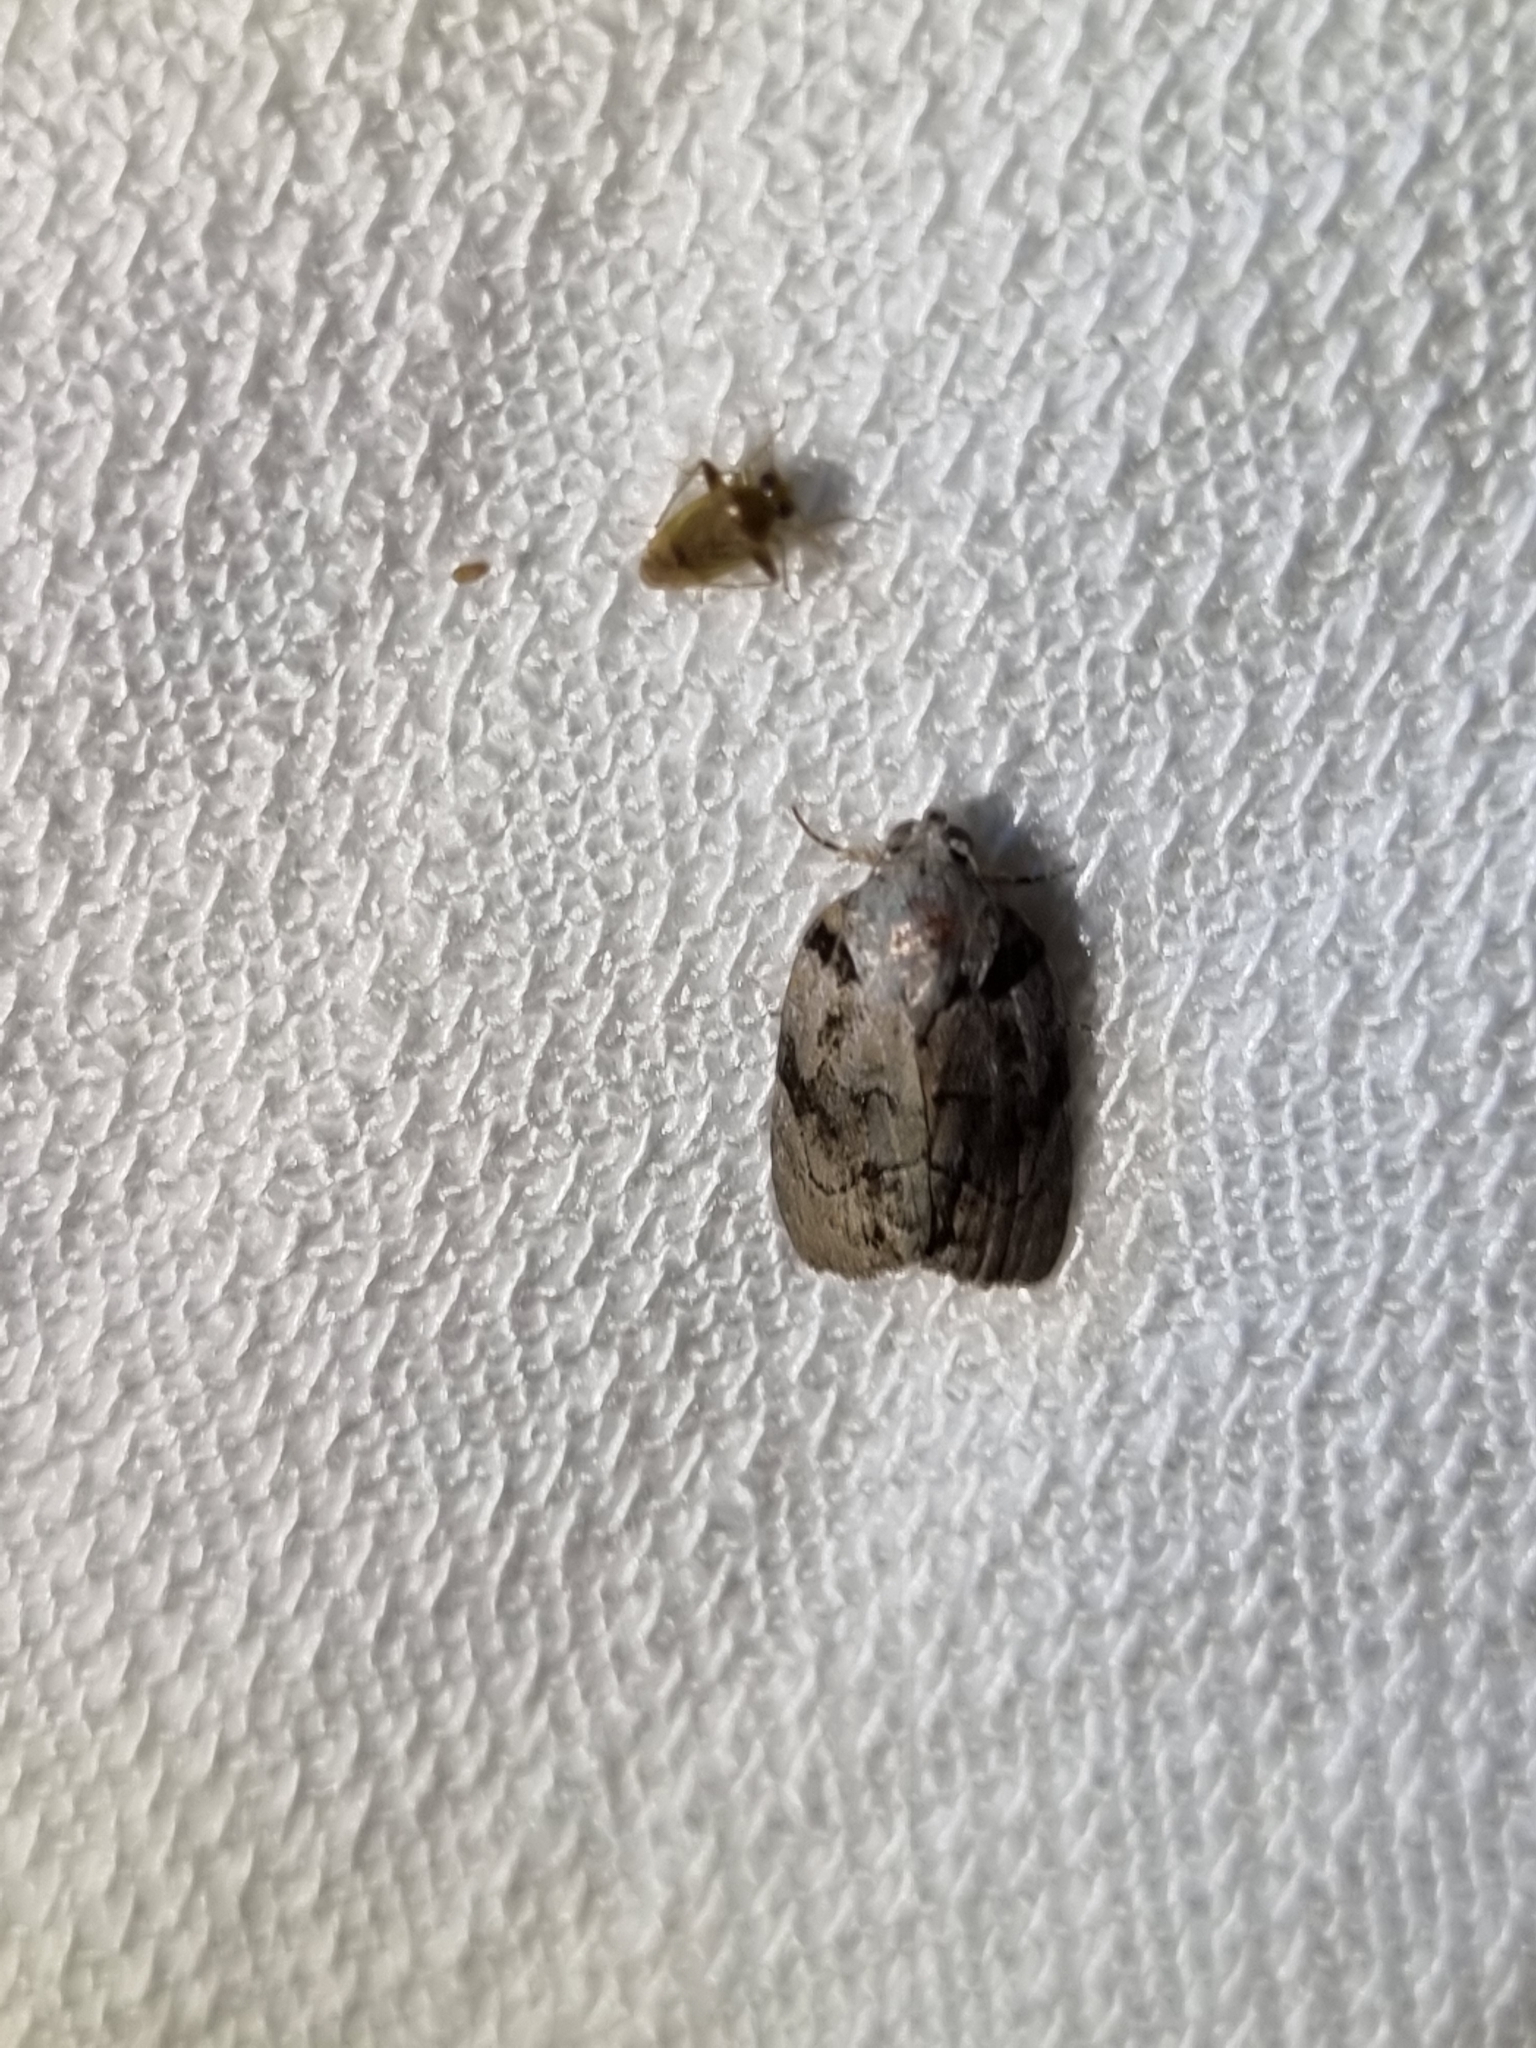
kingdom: Animalia
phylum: Arthropoda
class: Insecta
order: Lepidoptera
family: Nolidae
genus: Etanna
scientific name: Etanna clopaea
